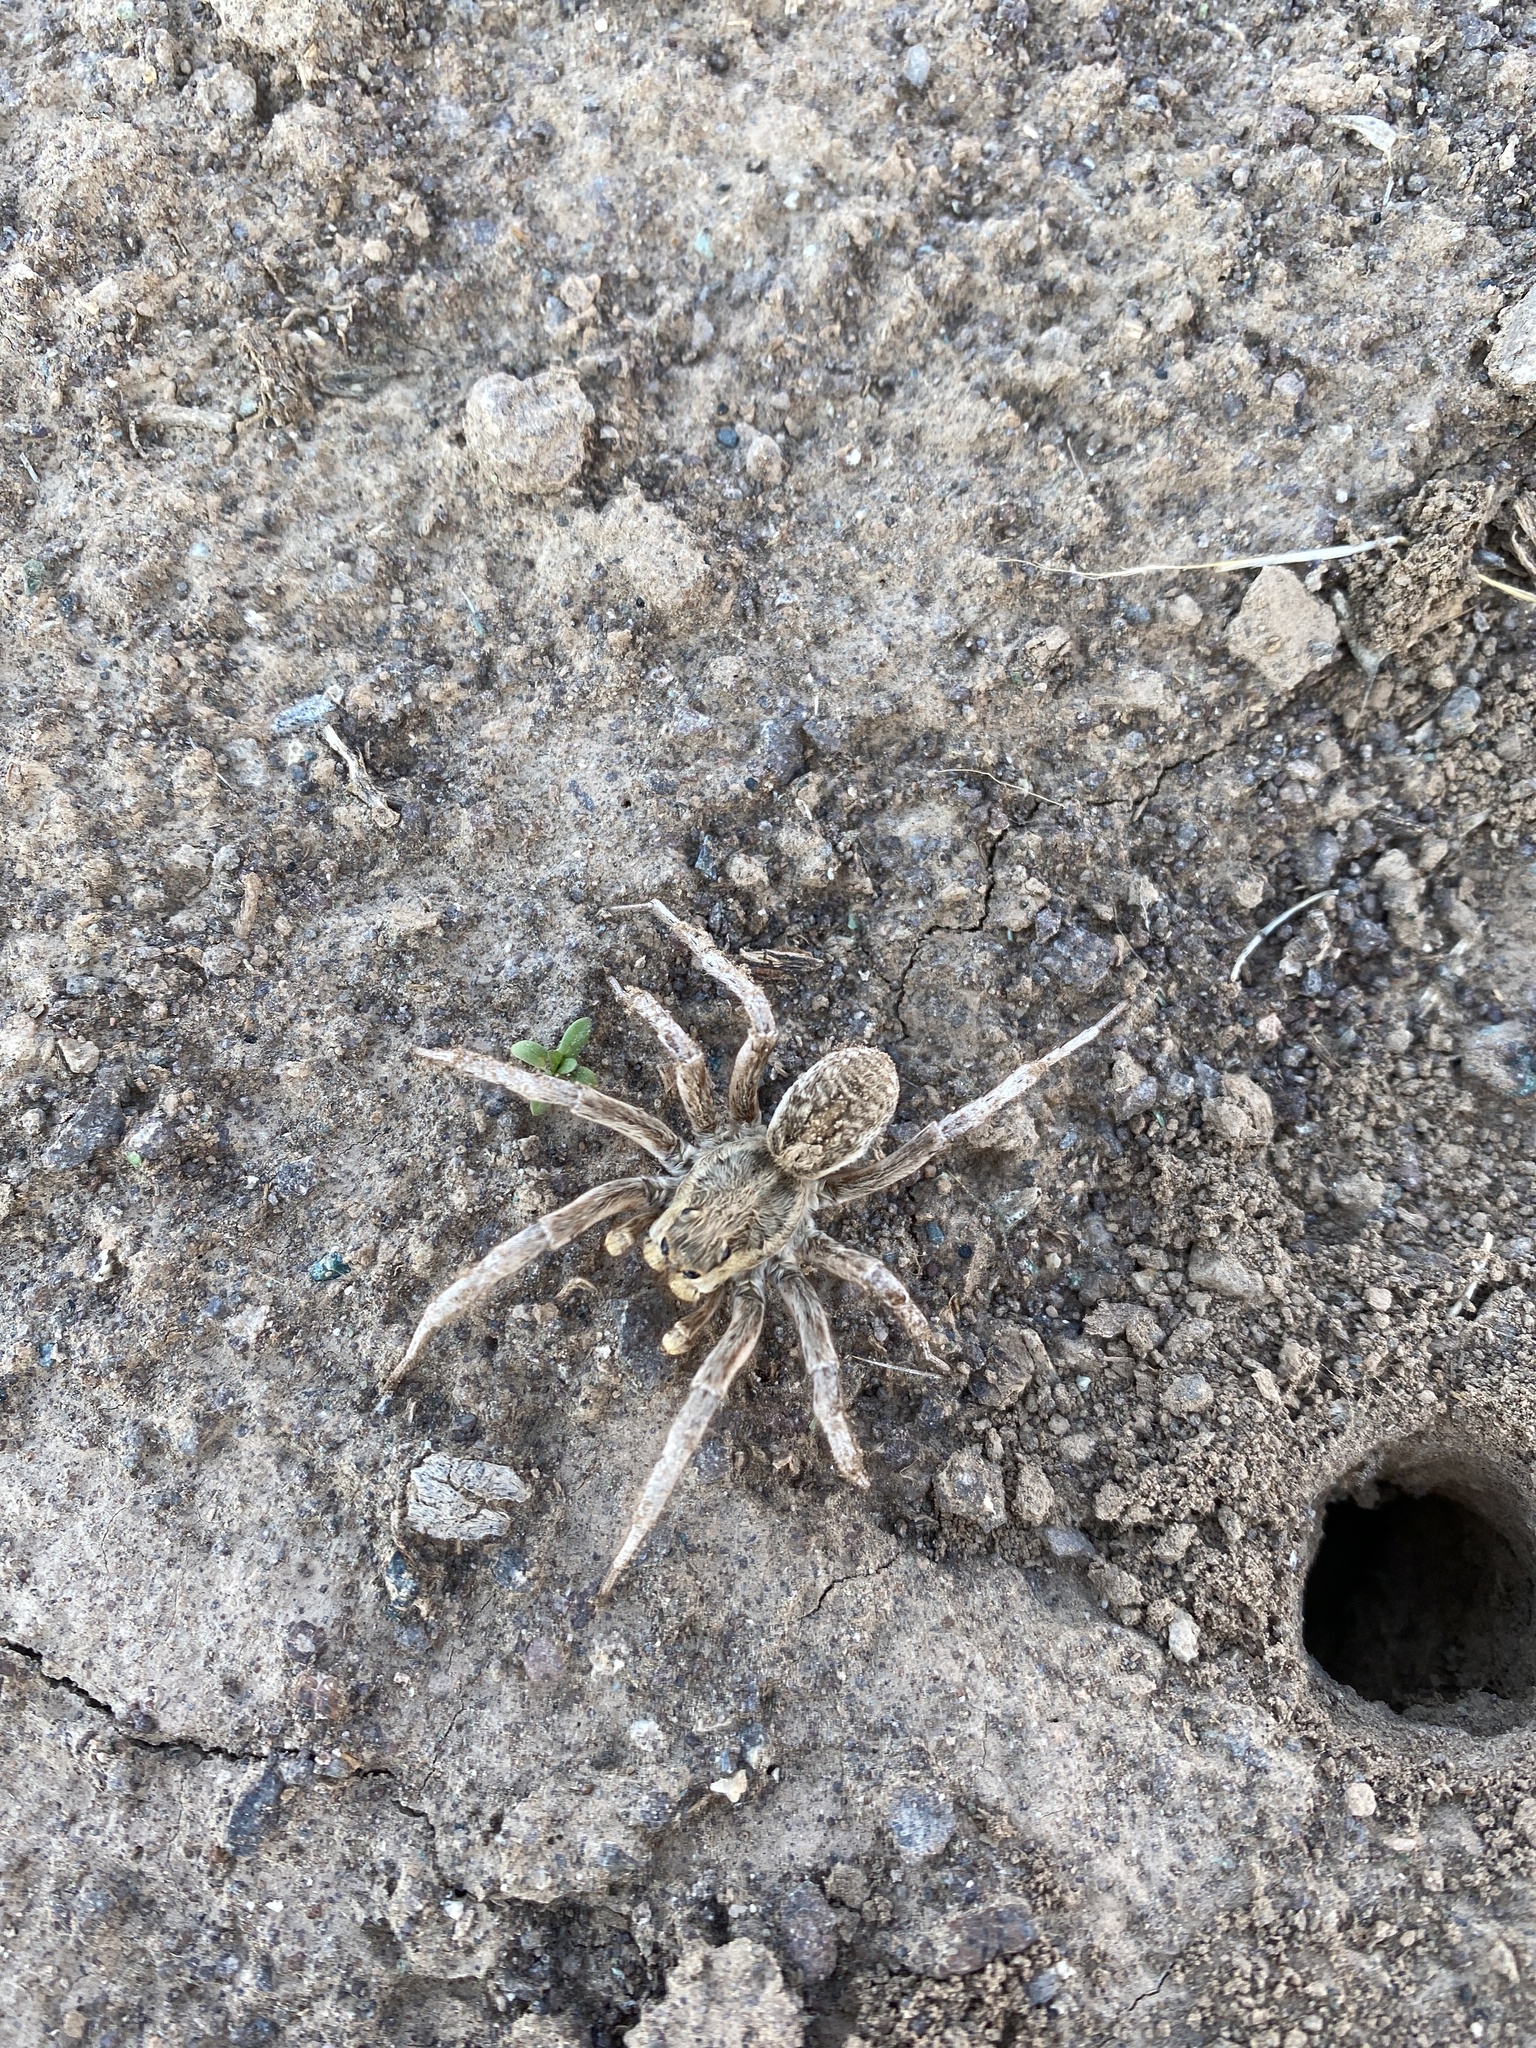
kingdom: Animalia
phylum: Arthropoda
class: Arachnida
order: Araneae
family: Lycosidae
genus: Lycosa
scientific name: Lycosa praegrandis
